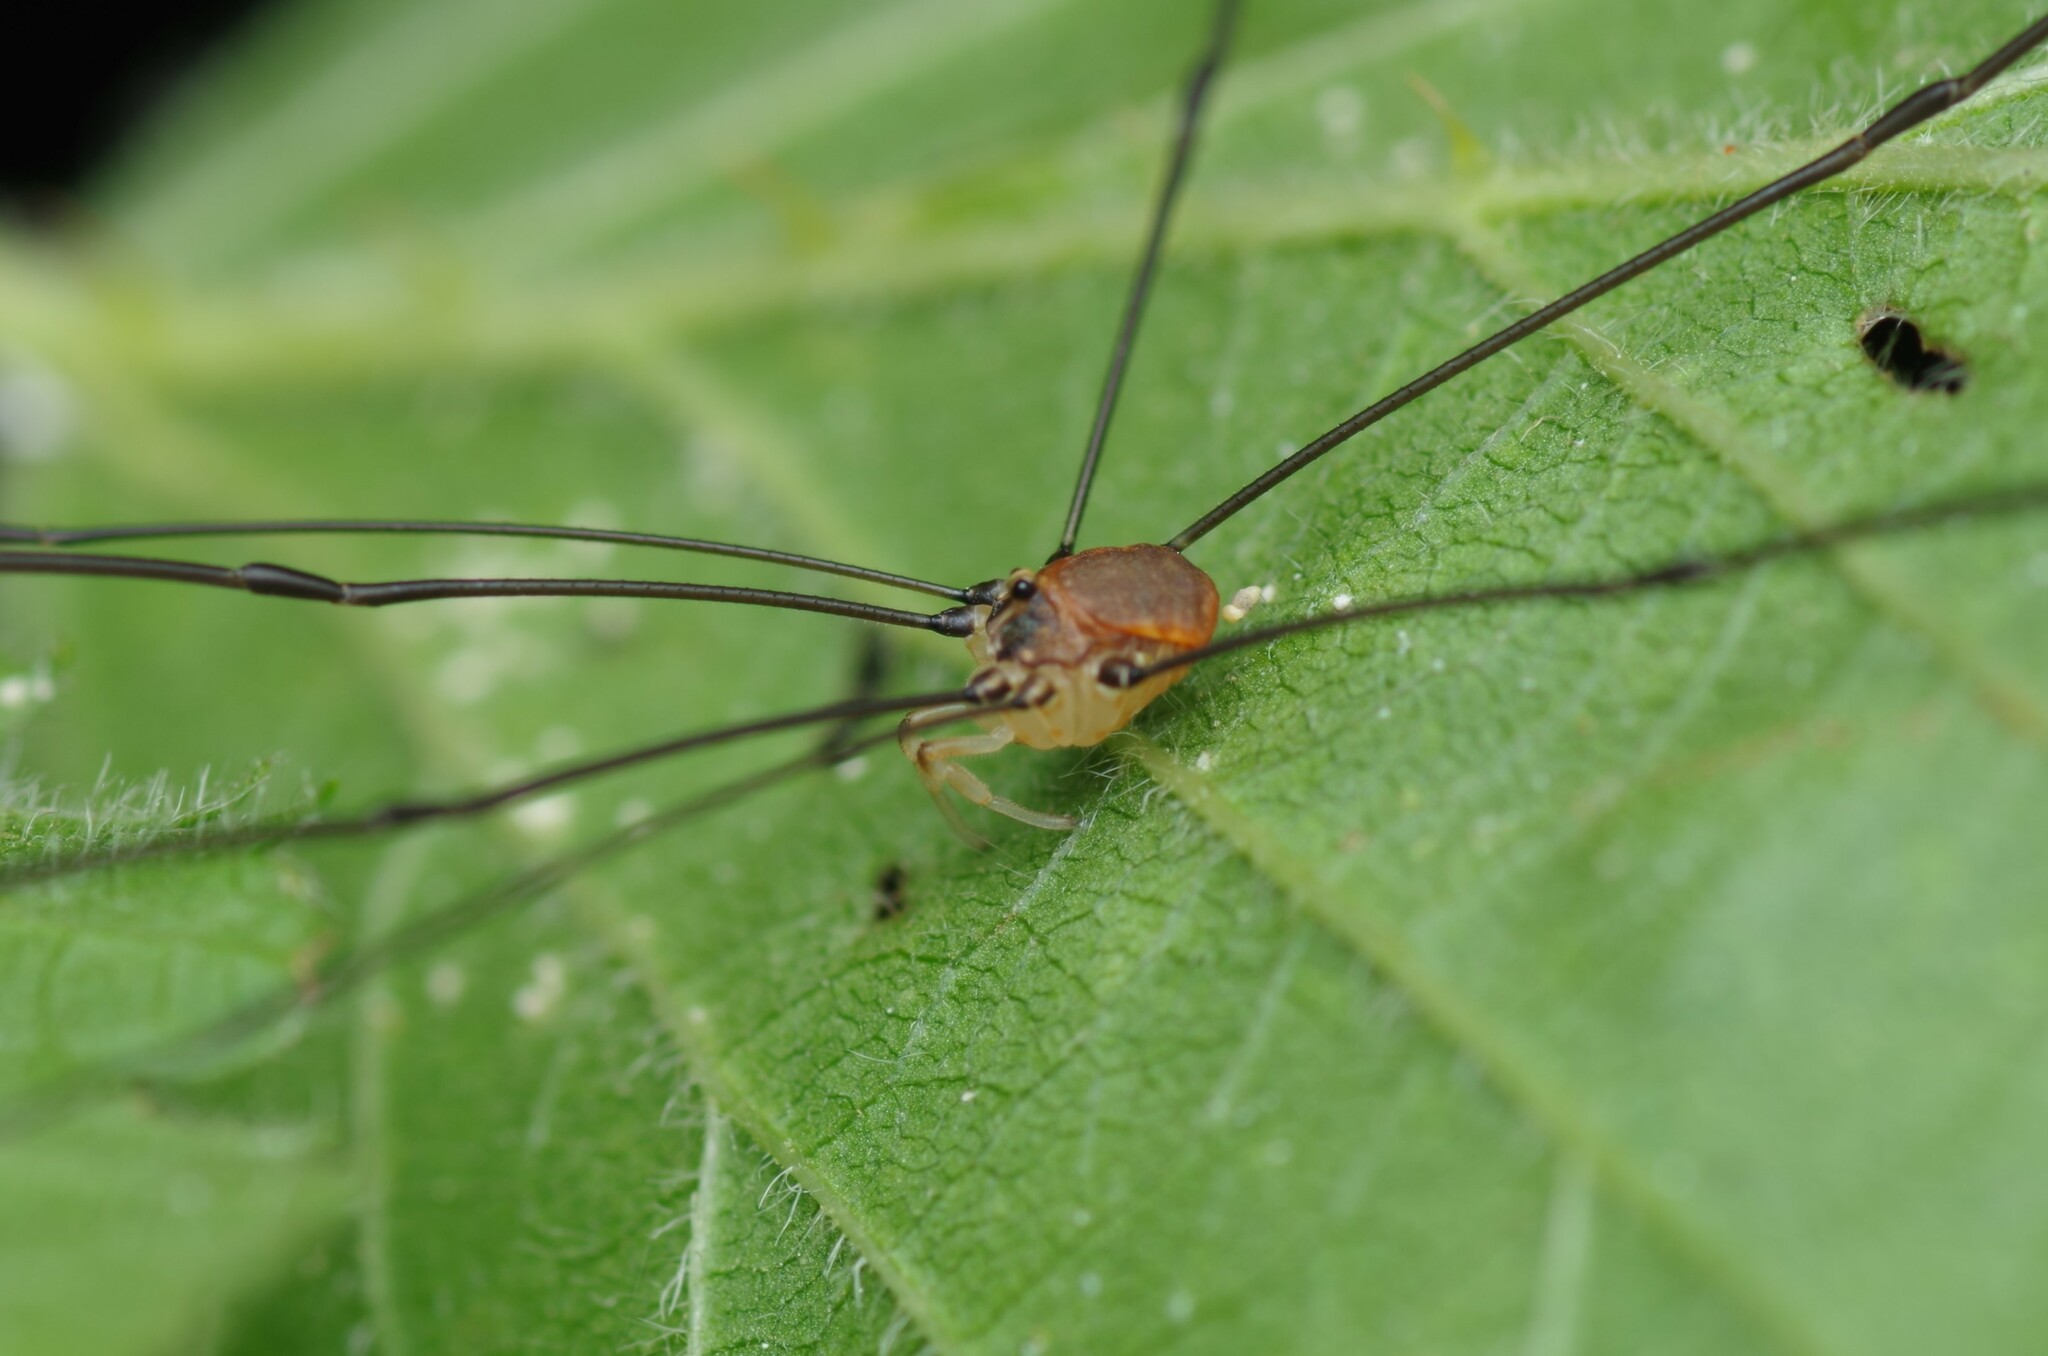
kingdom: Animalia
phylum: Arthropoda
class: Arachnida
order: Opiliones
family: Sclerosomatidae
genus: Leiobunum
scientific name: Leiobunum blackwalli
